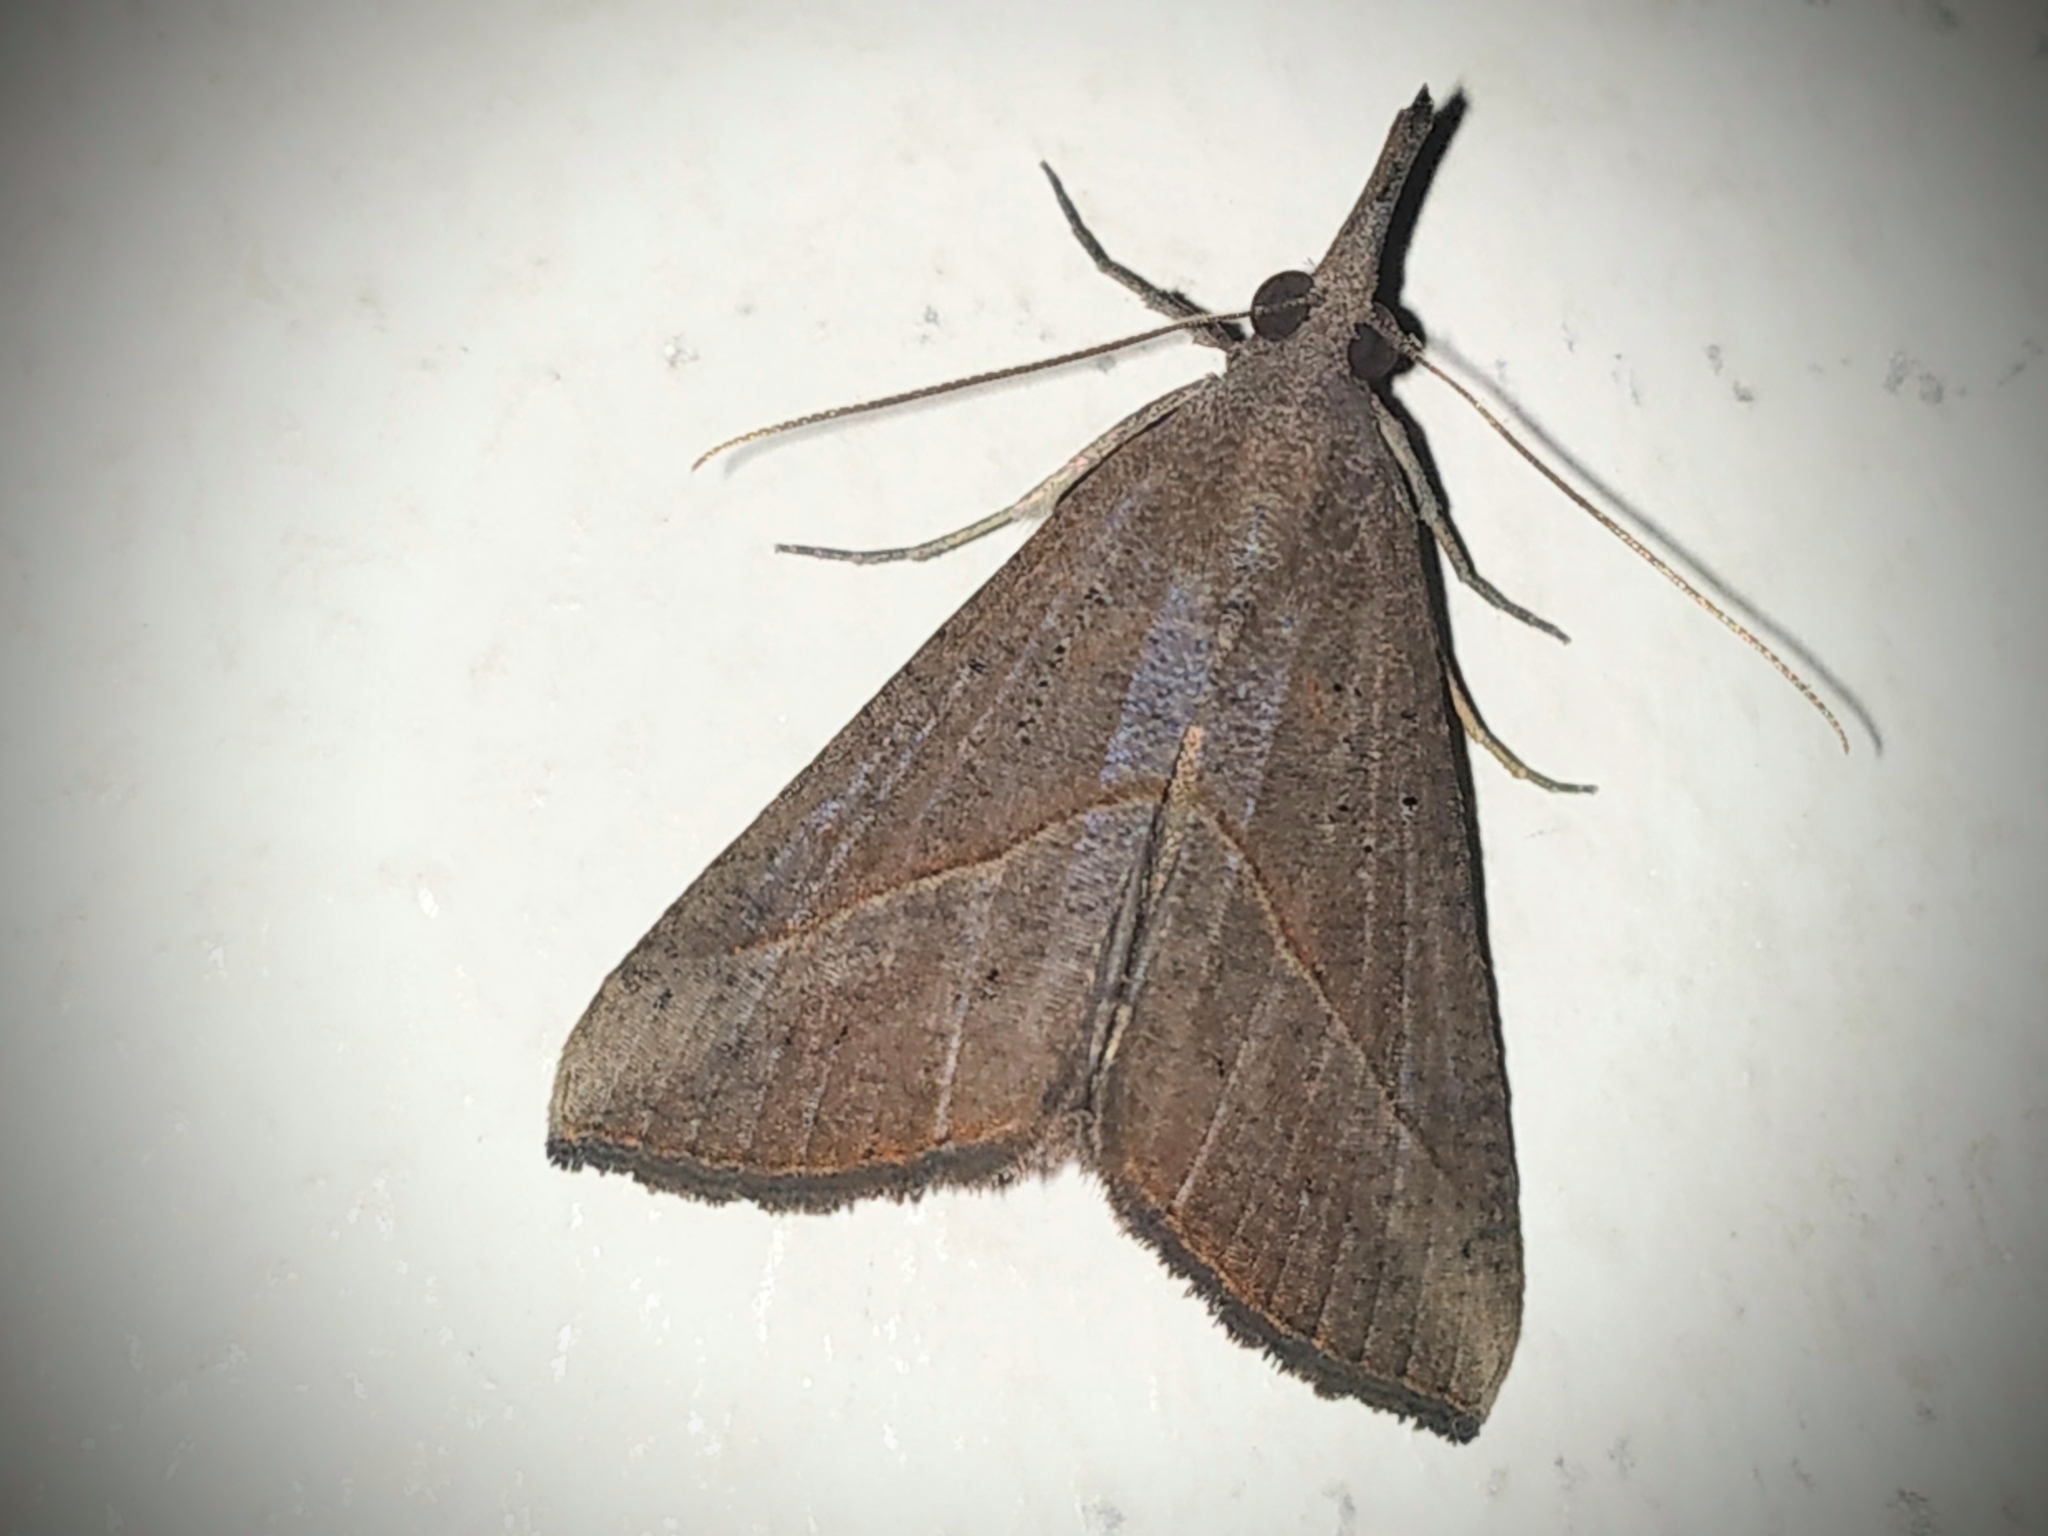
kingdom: Animalia
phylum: Arthropoda
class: Insecta
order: Lepidoptera
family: Erebidae
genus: Hypena
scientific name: Hypena lividalis
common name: Chevron snout
